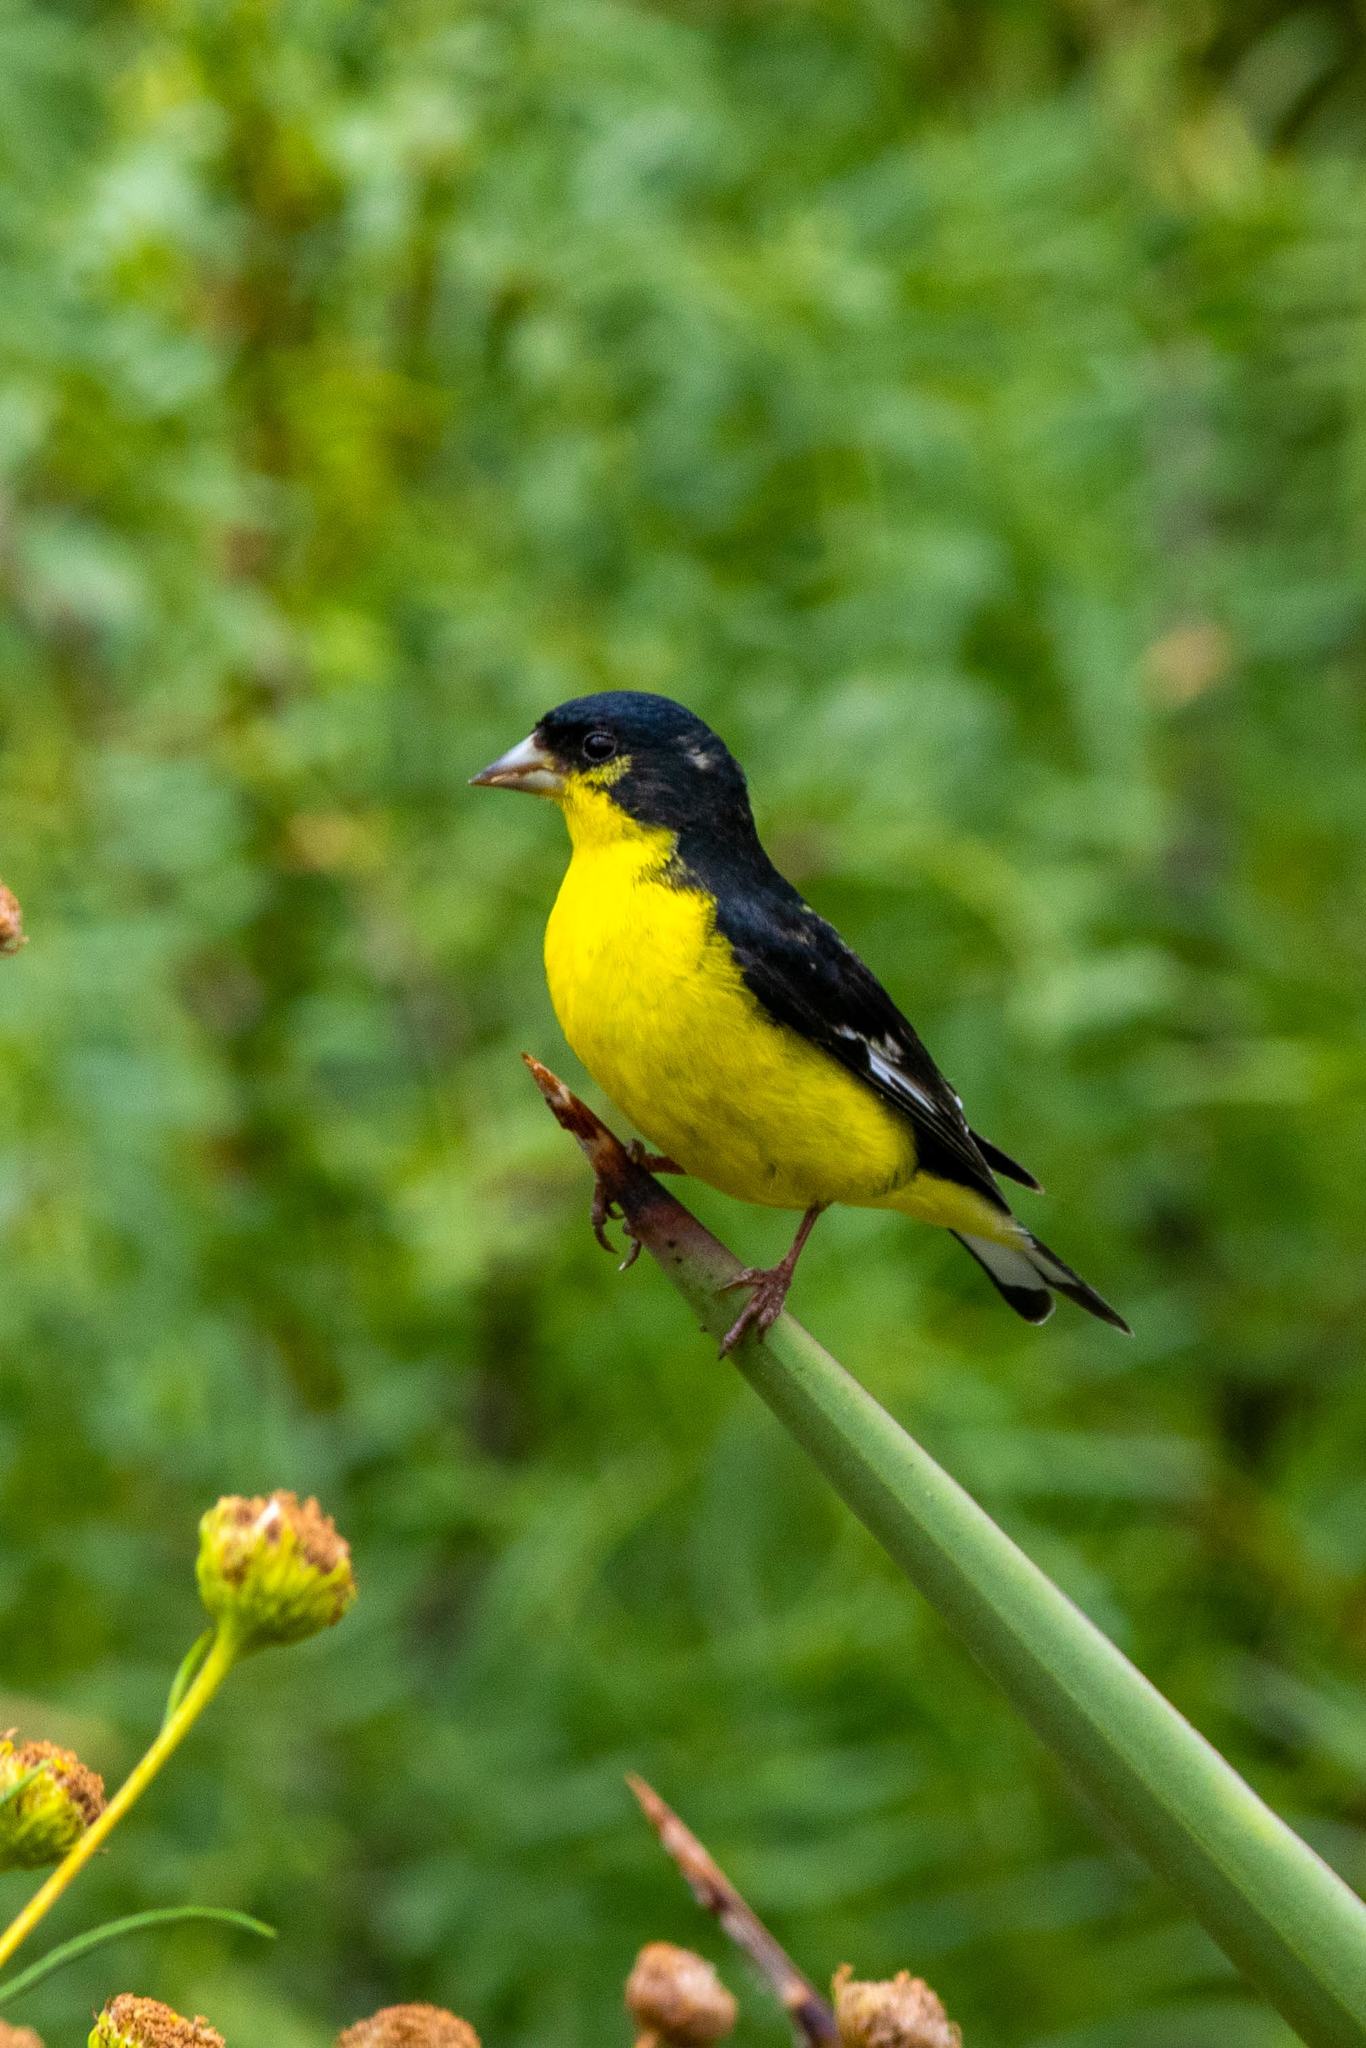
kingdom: Animalia
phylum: Chordata
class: Aves
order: Passeriformes
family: Fringillidae
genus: Spinus
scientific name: Spinus psaltria
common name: Lesser goldfinch
